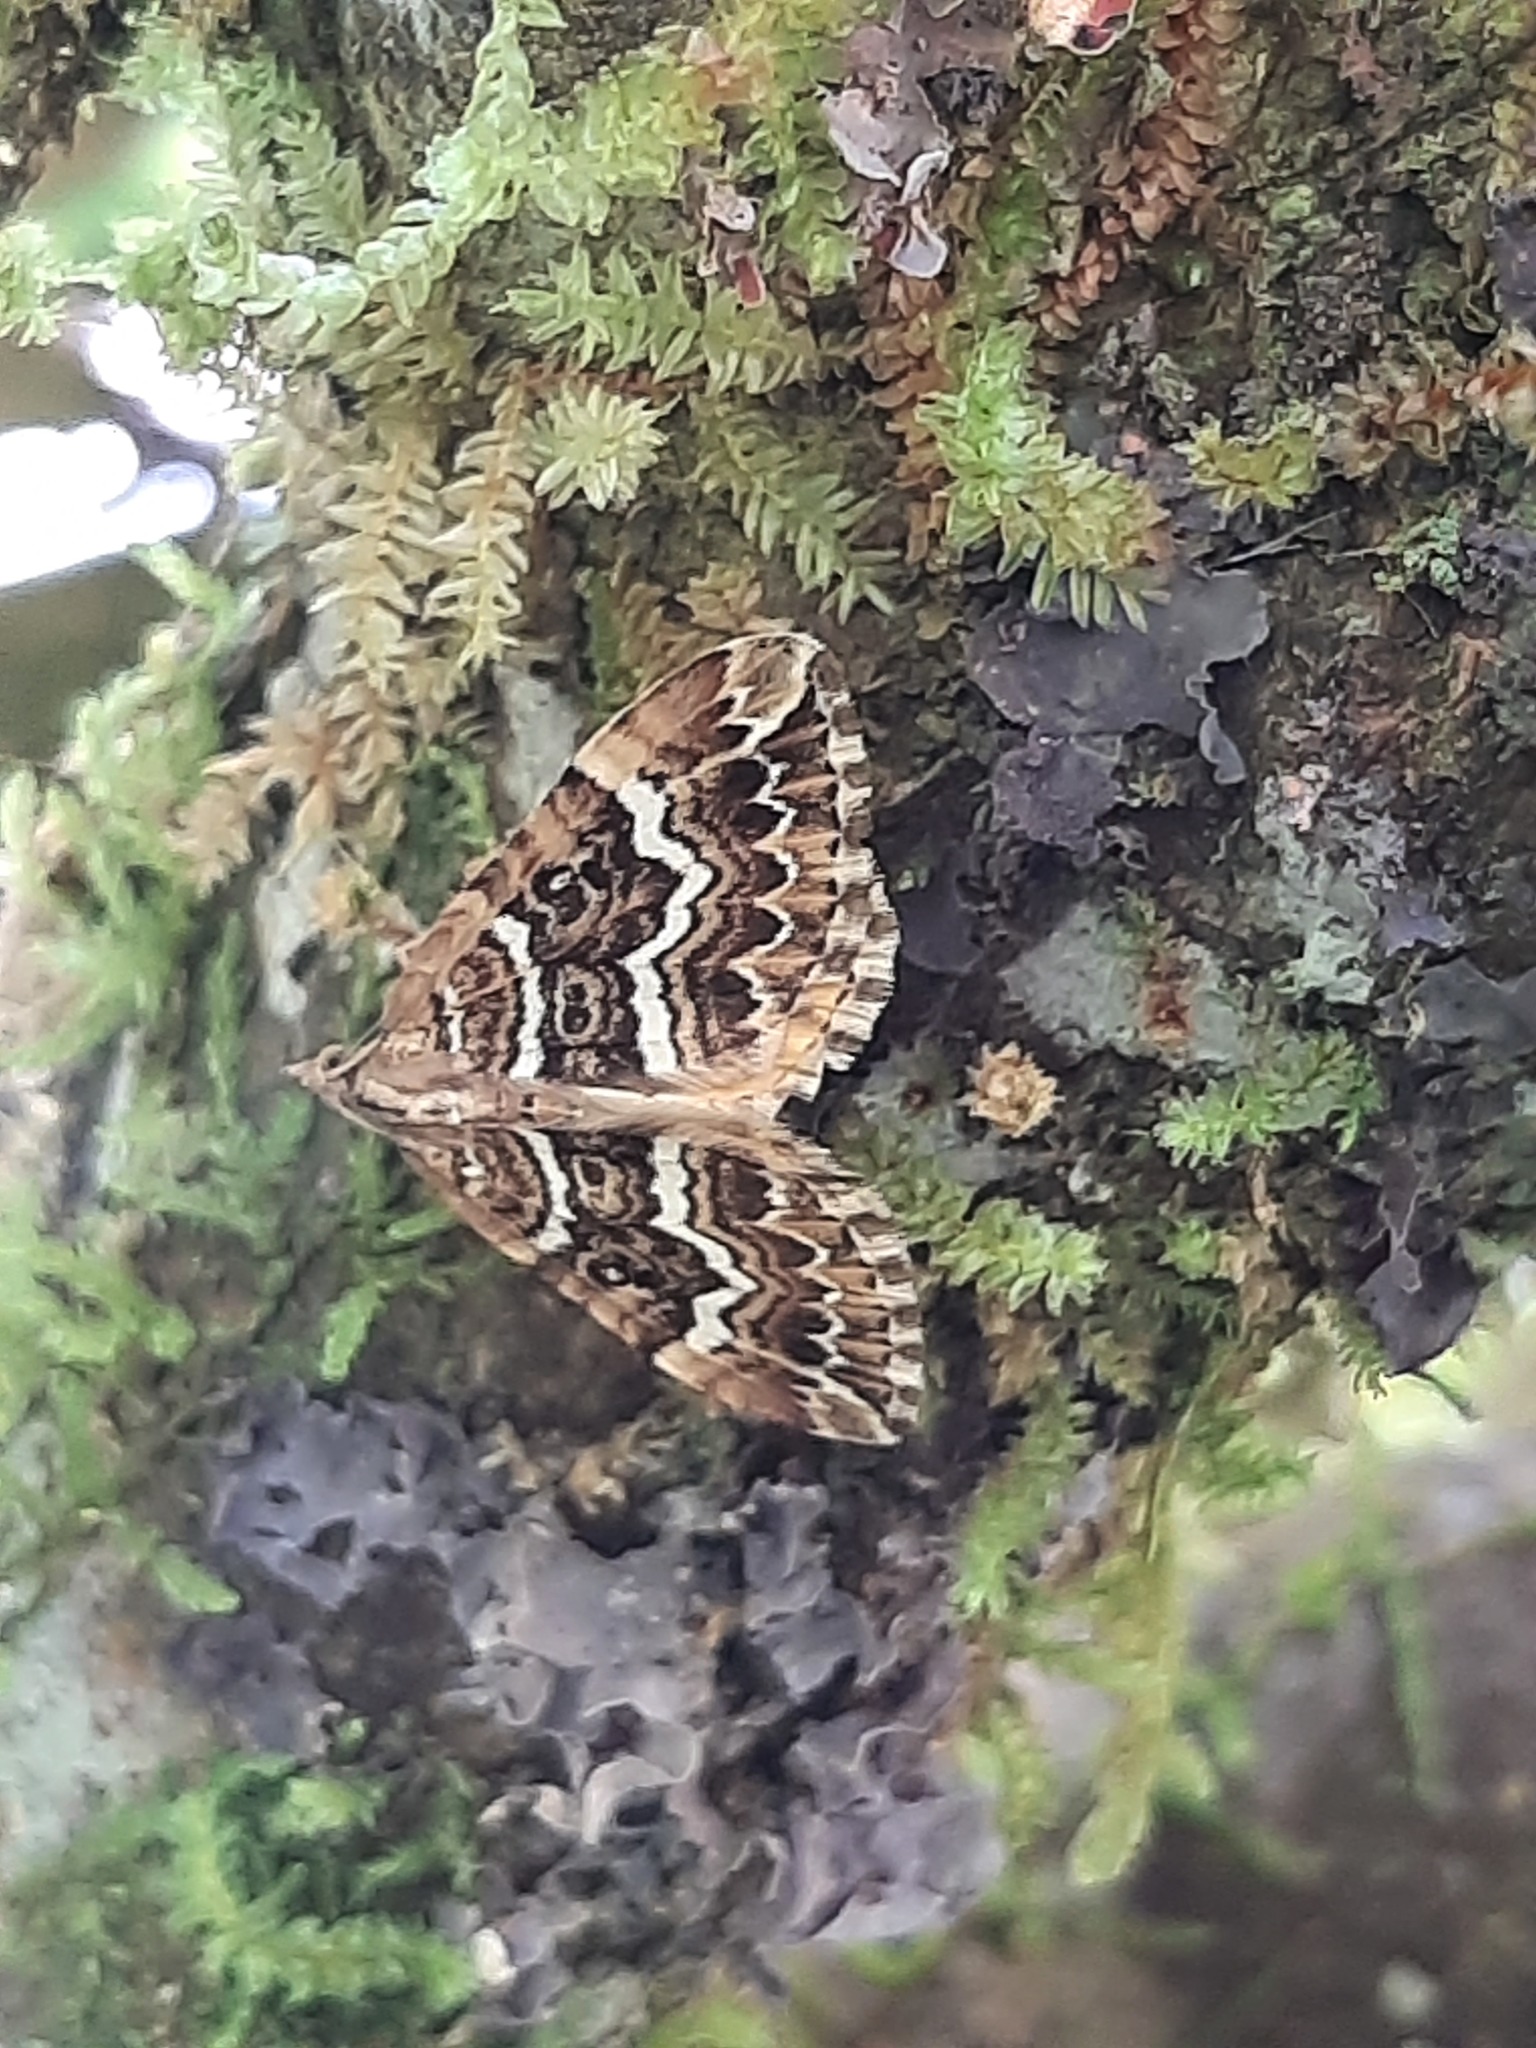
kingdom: Animalia
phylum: Arthropoda
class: Insecta
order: Lepidoptera
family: Geometridae
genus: Asaphodes
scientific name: Asaphodes clarata
